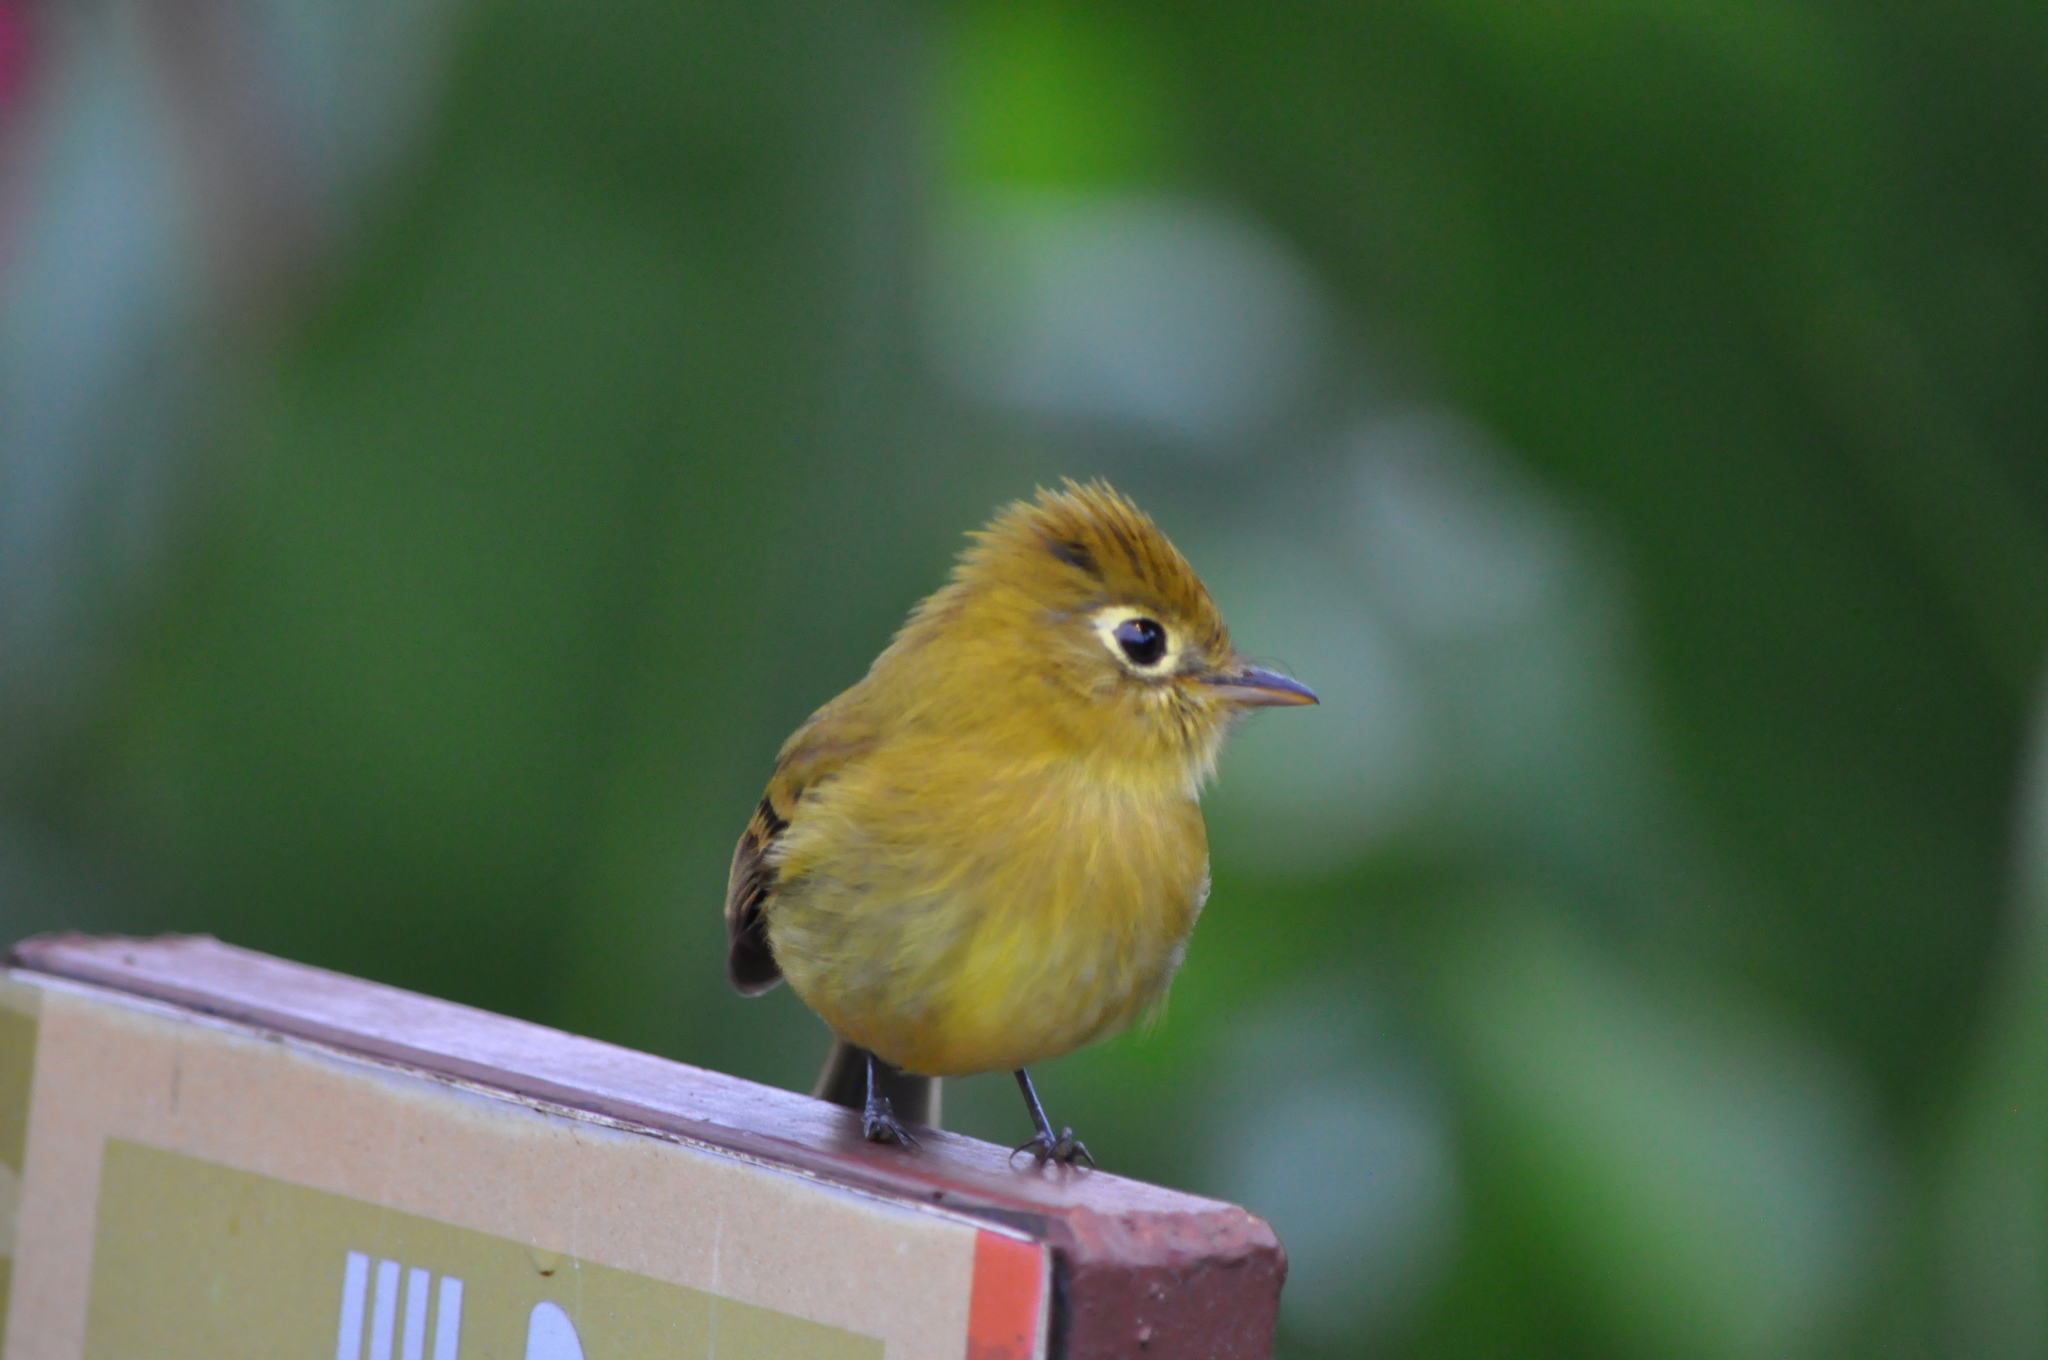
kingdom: Animalia
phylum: Chordata
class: Aves
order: Passeriformes
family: Tyrannidae
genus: Empidonax
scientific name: Empidonax flavescens
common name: Yellowish flycatcher
